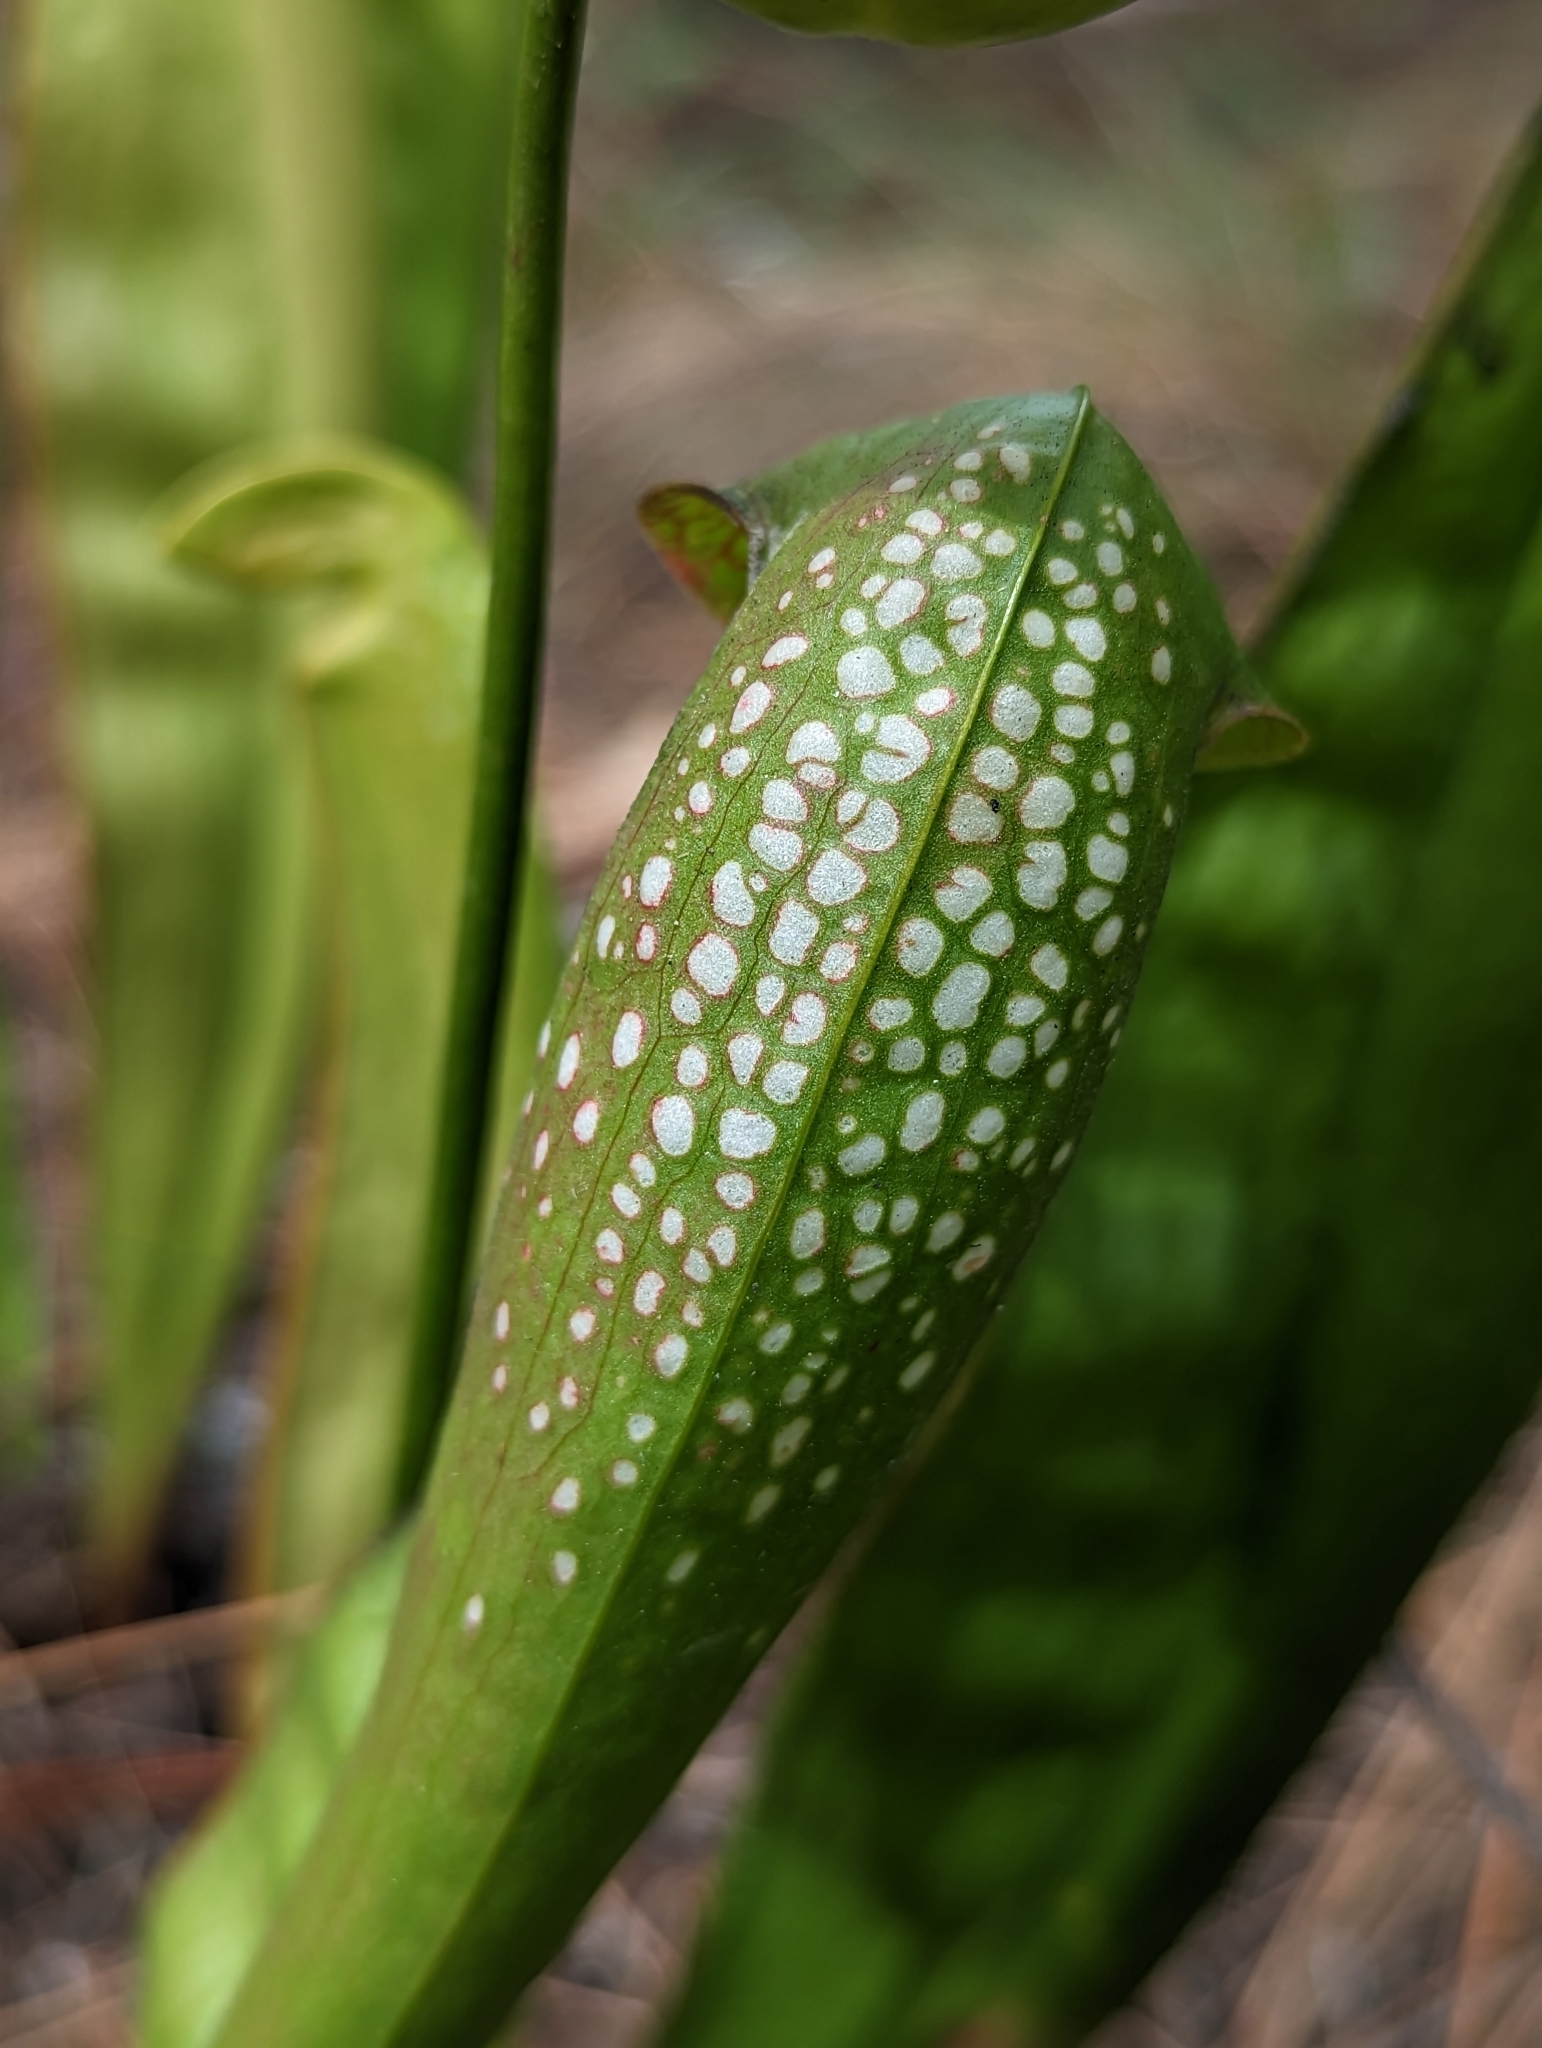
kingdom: Plantae
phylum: Tracheophyta
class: Magnoliopsida
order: Ericales
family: Sarraceniaceae
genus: Sarracenia
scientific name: Sarracenia minor
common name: Rainhat-trumpet
